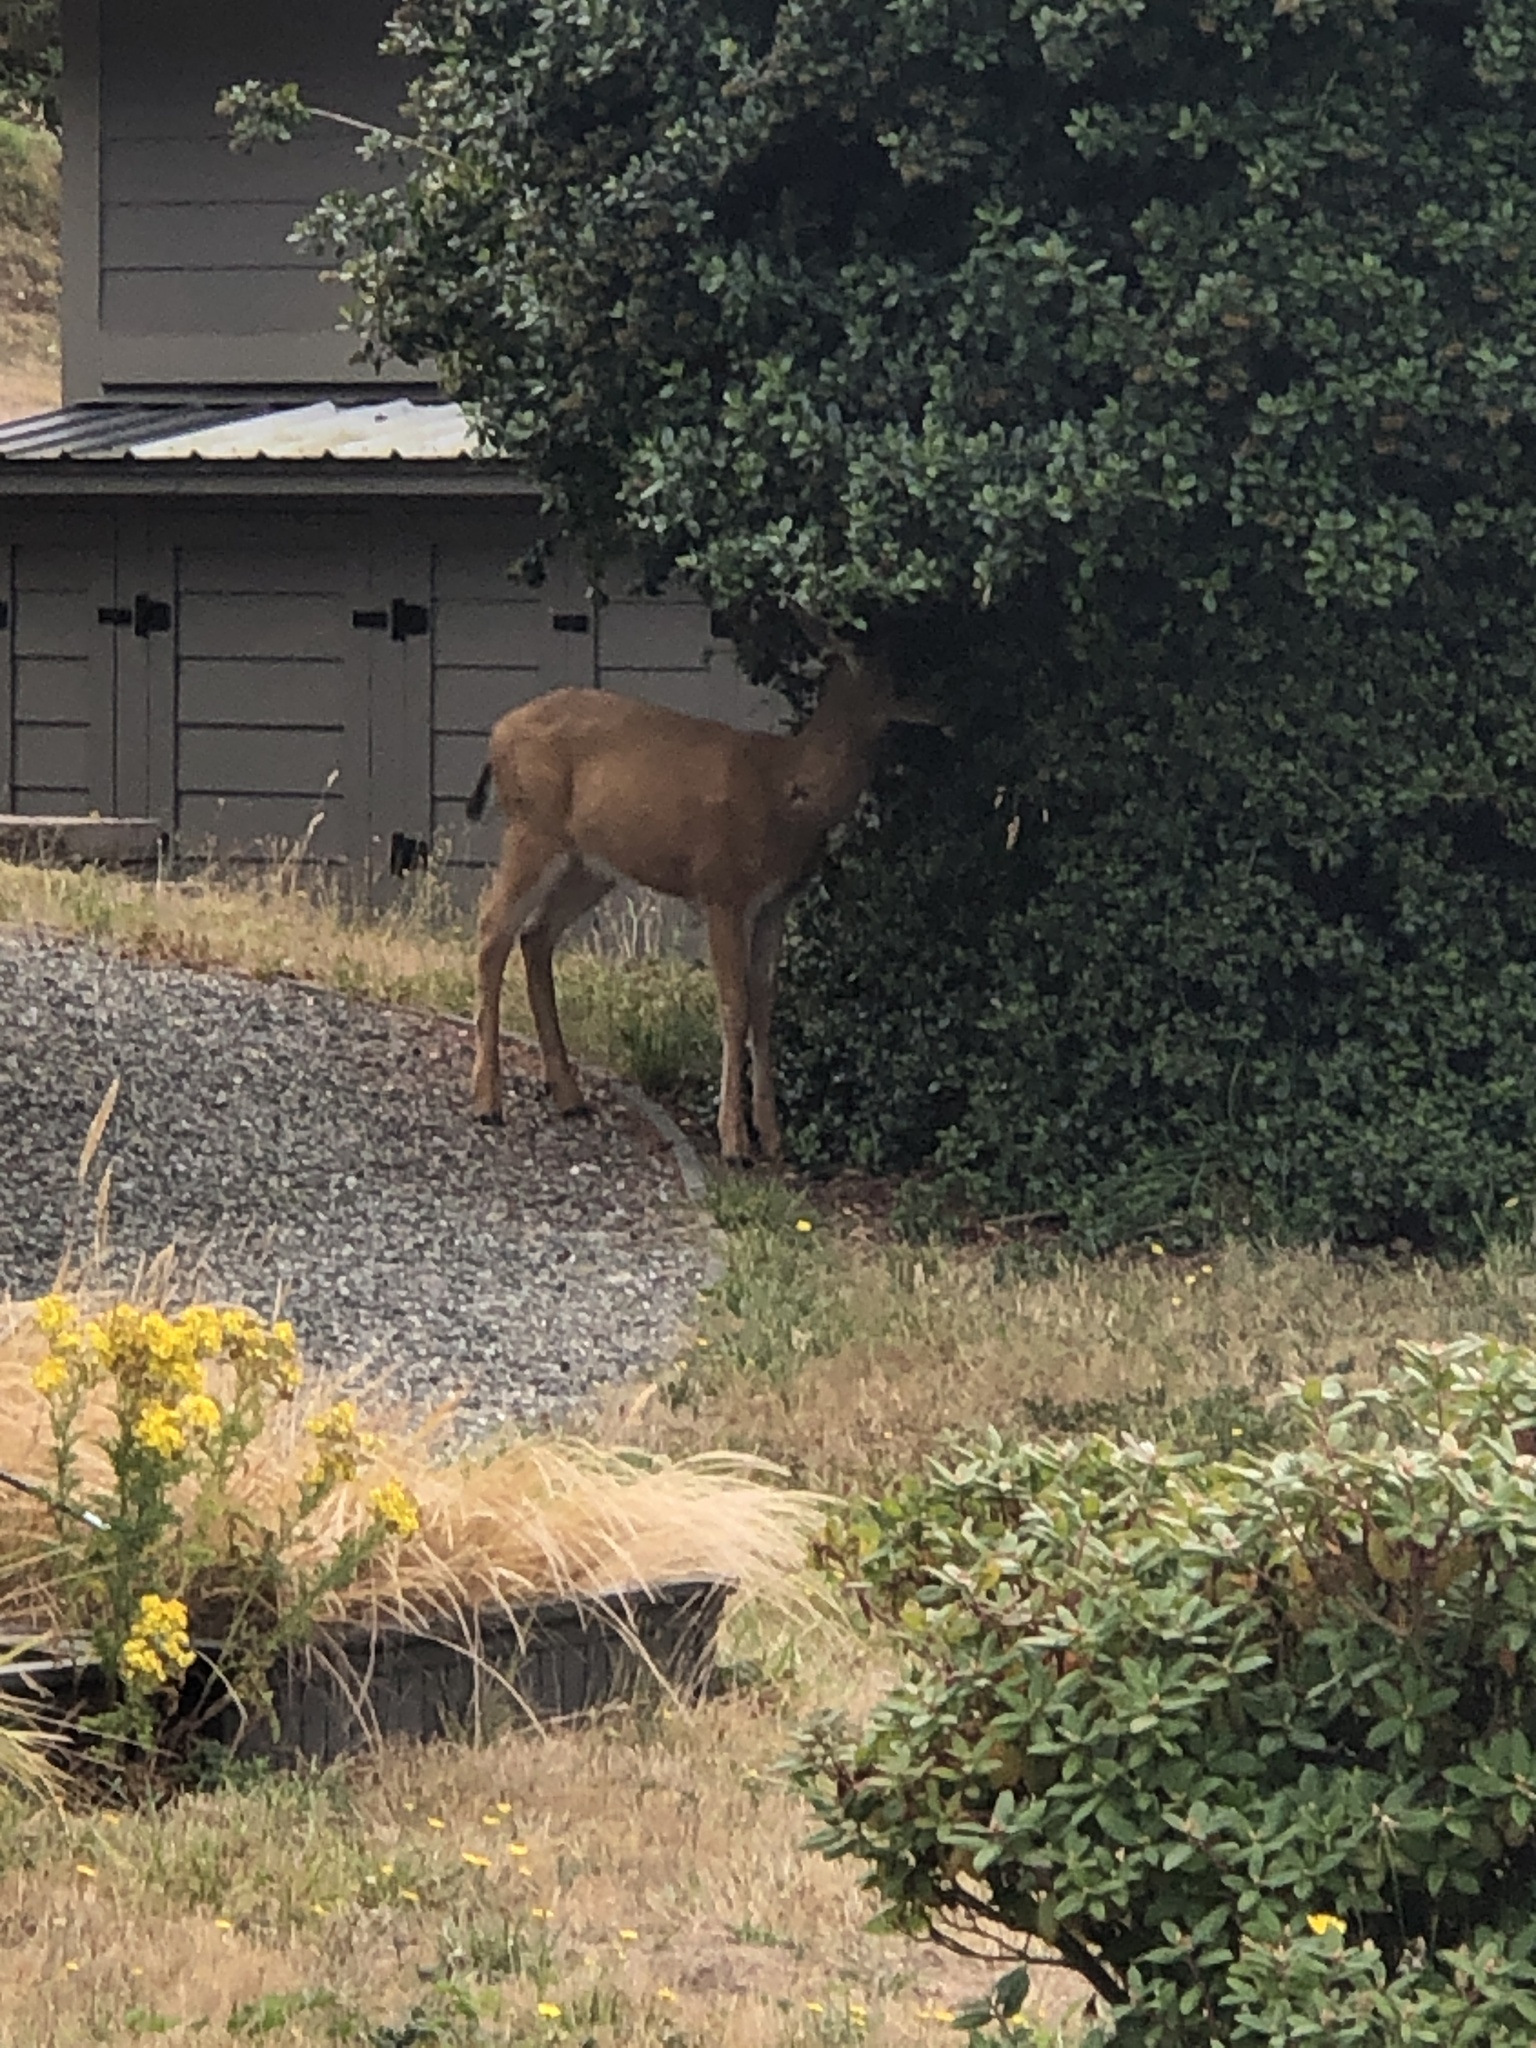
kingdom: Animalia
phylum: Chordata
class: Mammalia
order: Artiodactyla
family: Cervidae
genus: Odocoileus
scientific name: Odocoileus hemionus
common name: Mule deer
